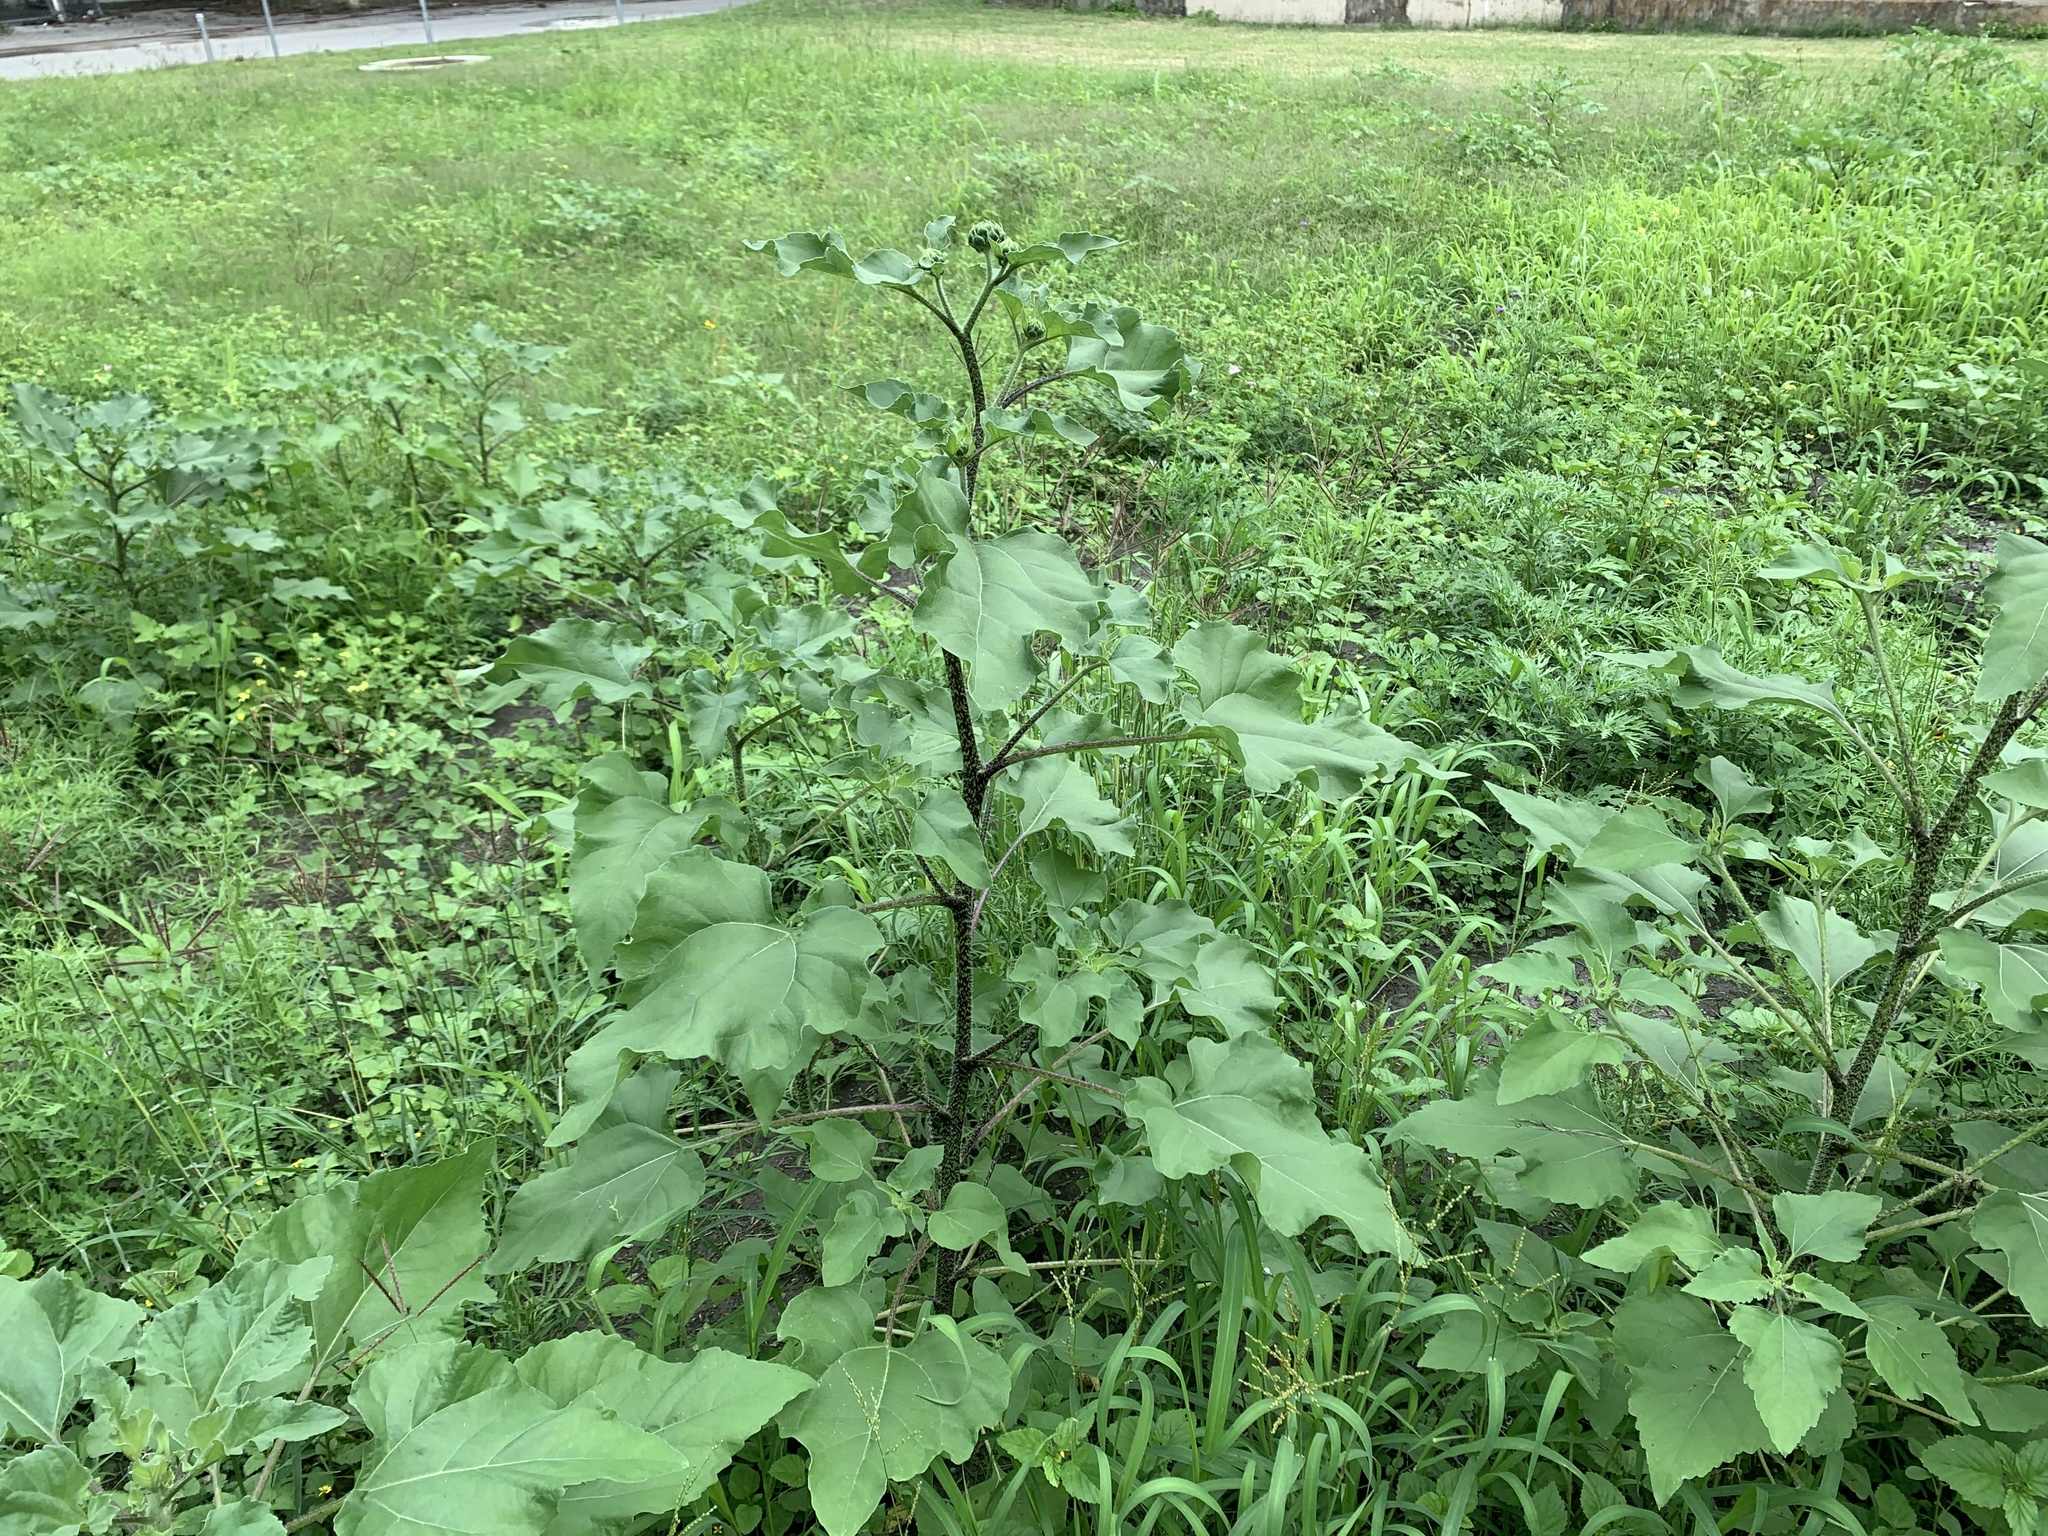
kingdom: Plantae
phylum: Tracheophyta
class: Magnoliopsida
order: Asterales
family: Asteraceae
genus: Helianthus
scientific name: Helianthus annuus
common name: Sunflower
